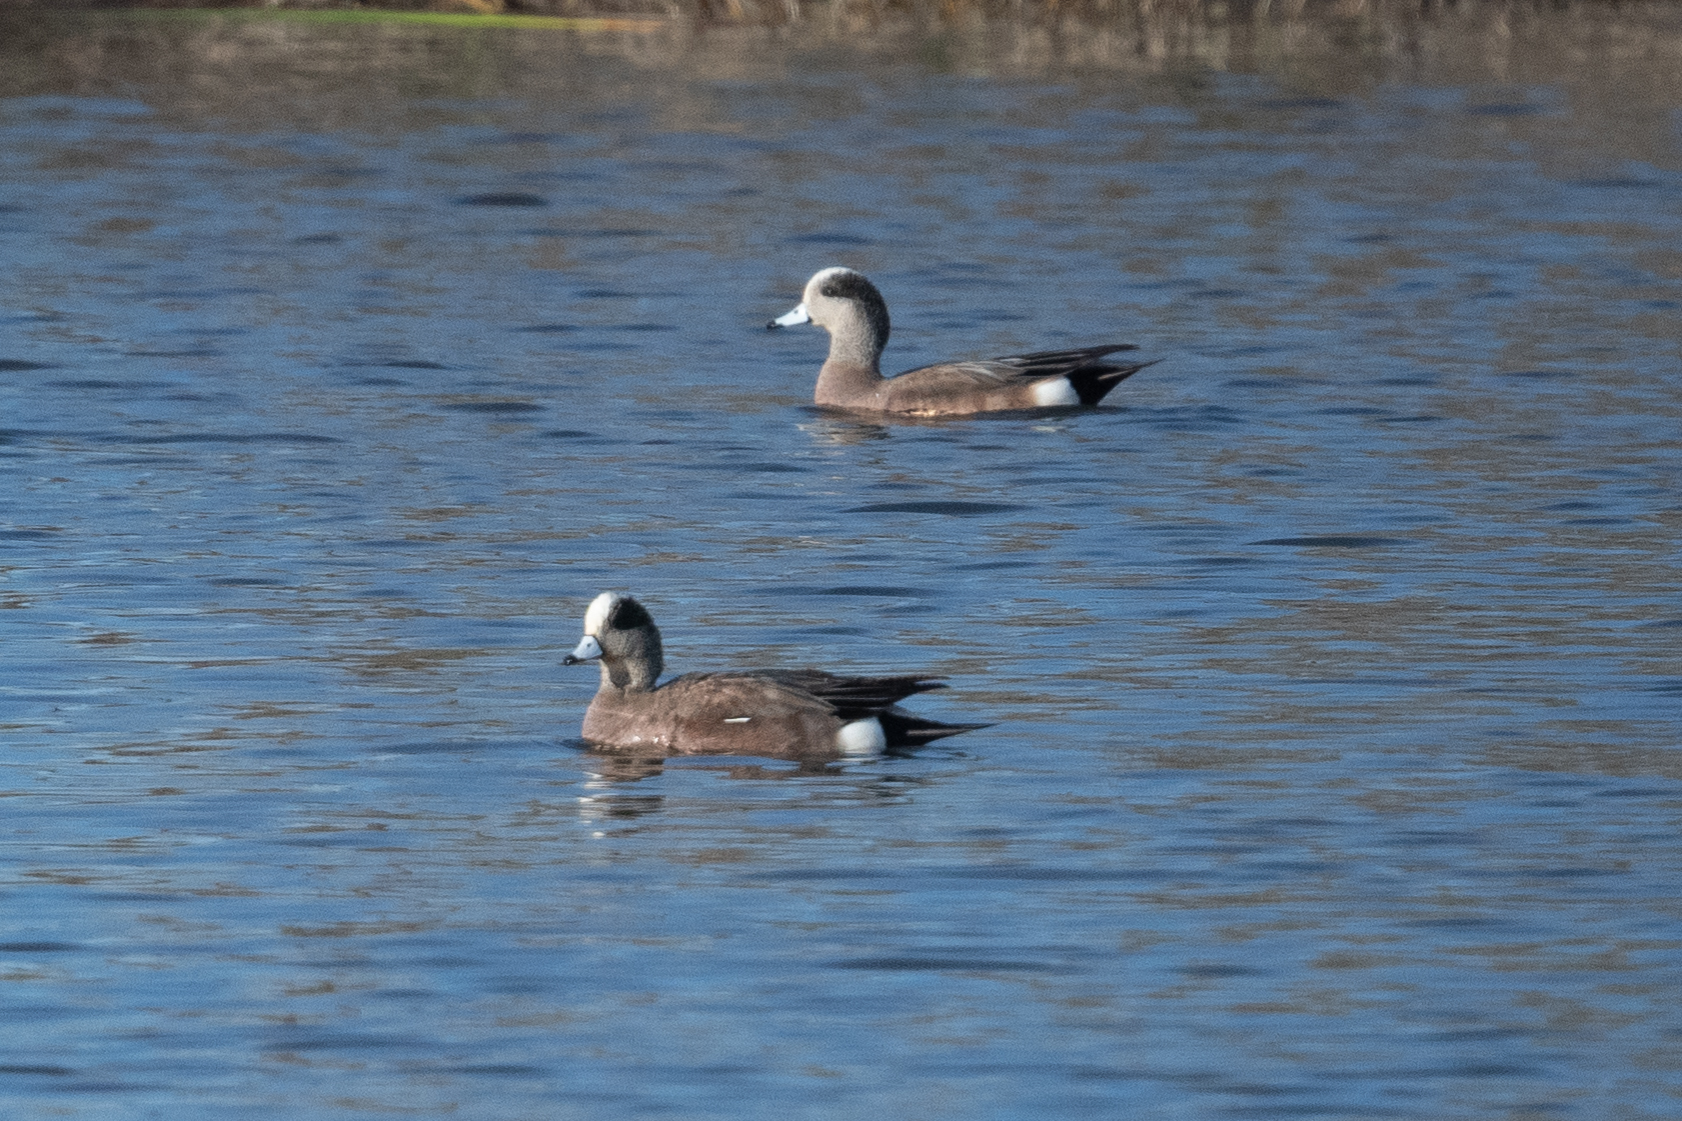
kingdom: Animalia
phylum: Chordata
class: Aves
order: Anseriformes
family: Anatidae
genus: Mareca
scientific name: Mareca americana
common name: American wigeon
